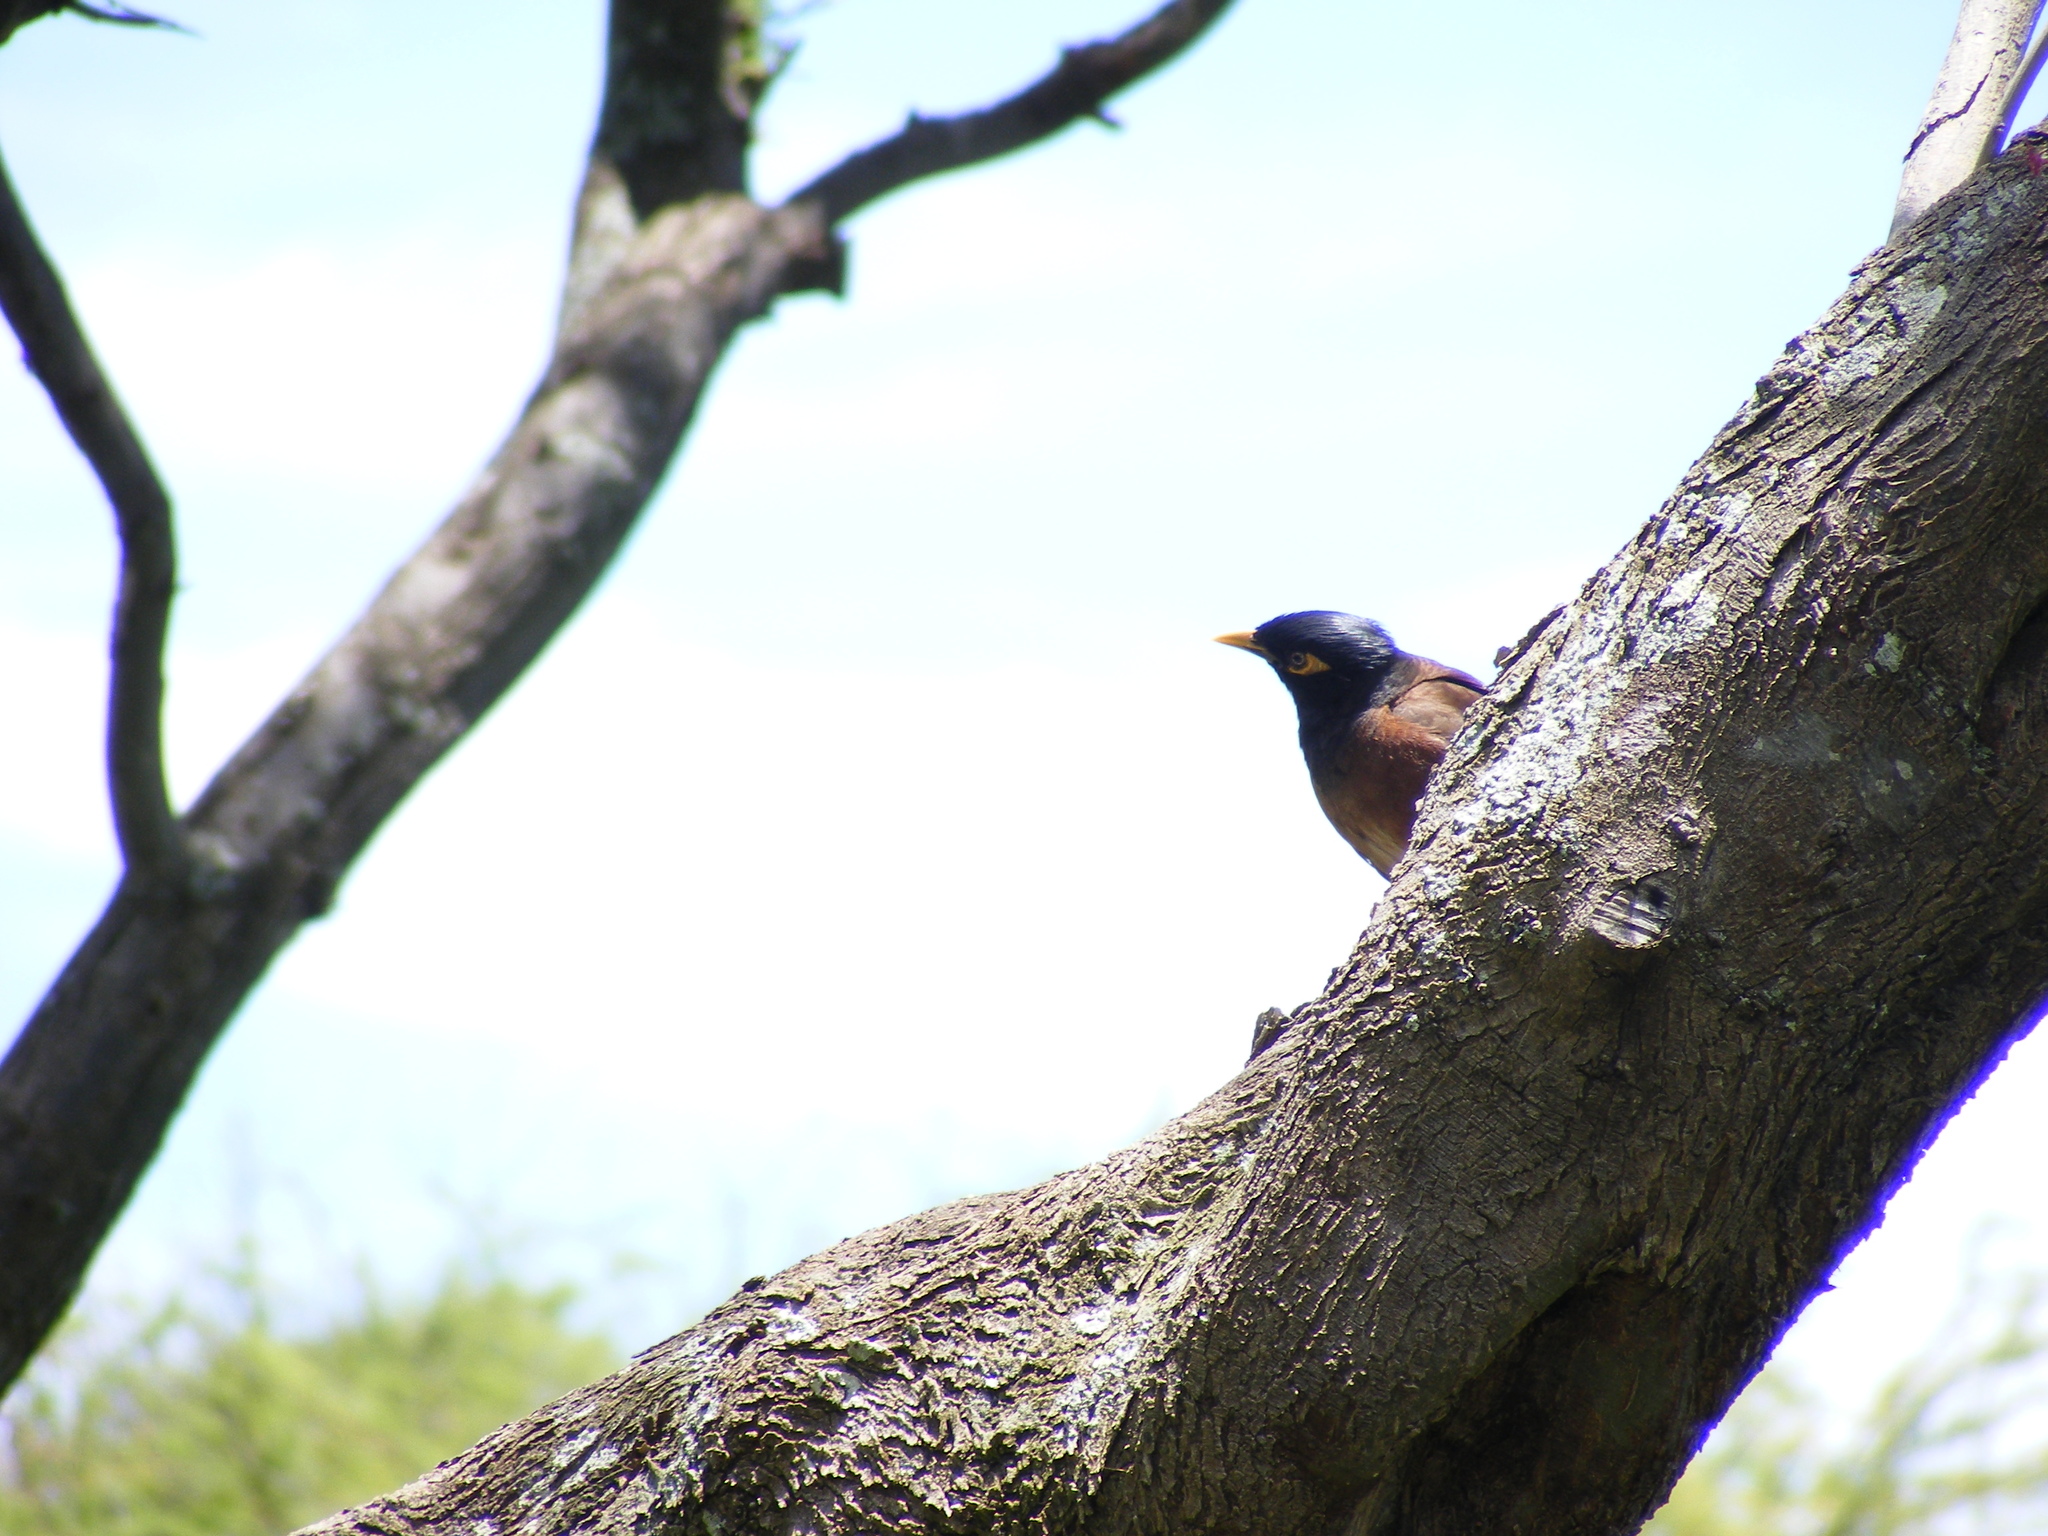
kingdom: Animalia
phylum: Chordata
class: Aves
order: Passeriformes
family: Sturnidae
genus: Acridotheres
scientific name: Acridotheres tristis
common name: Common myna
